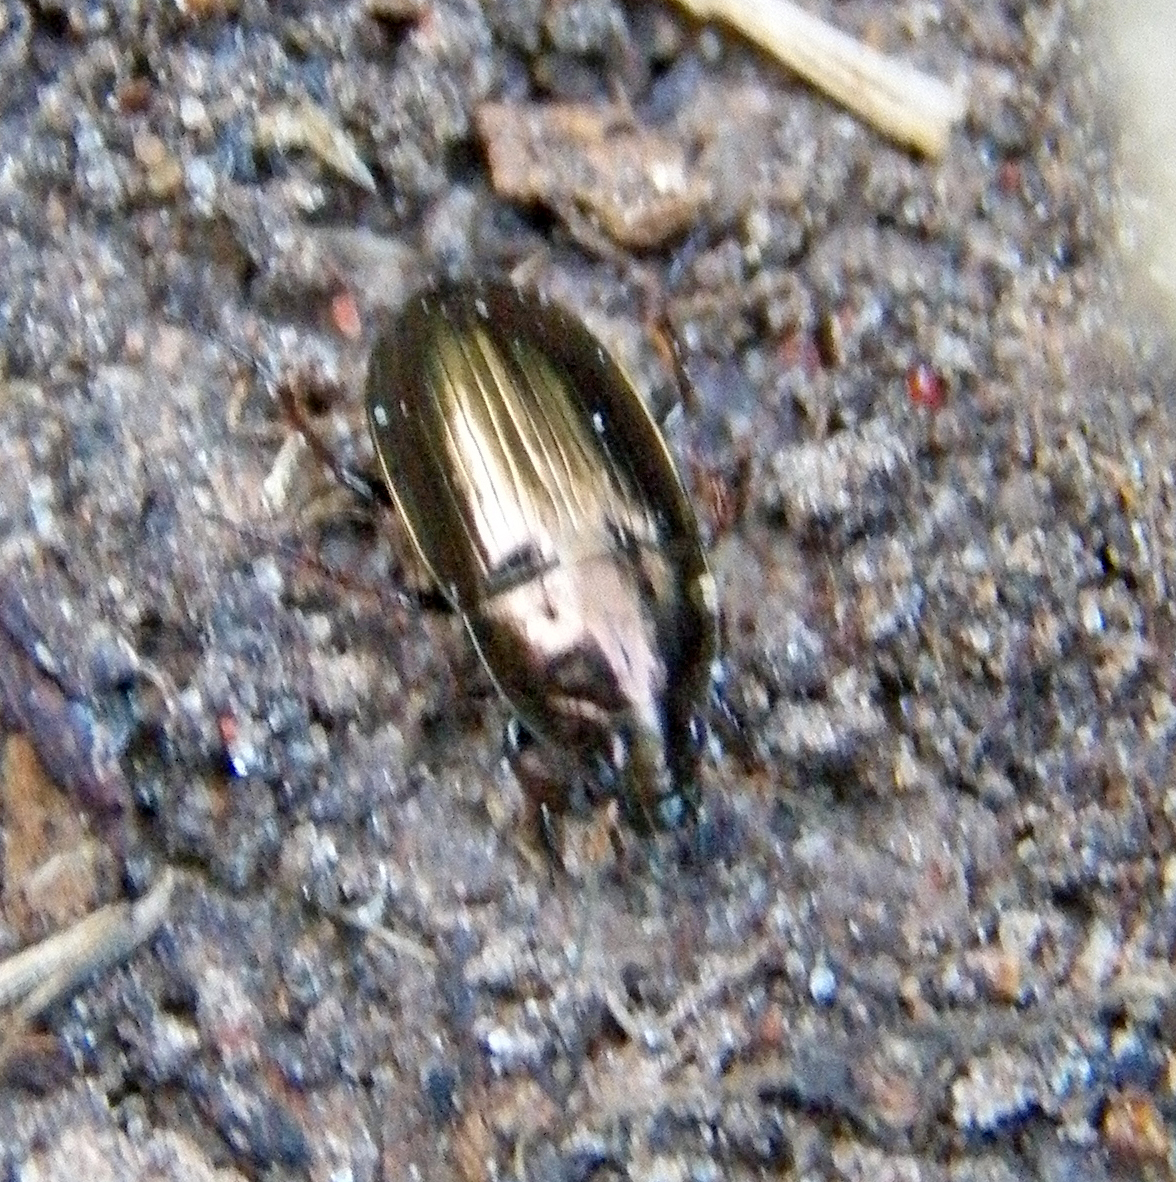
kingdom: Animalia
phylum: Arthropoda
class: Insecta
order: Coleoptera
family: Carabidae
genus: Amara
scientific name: Amara aenea
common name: Common sun beetle
